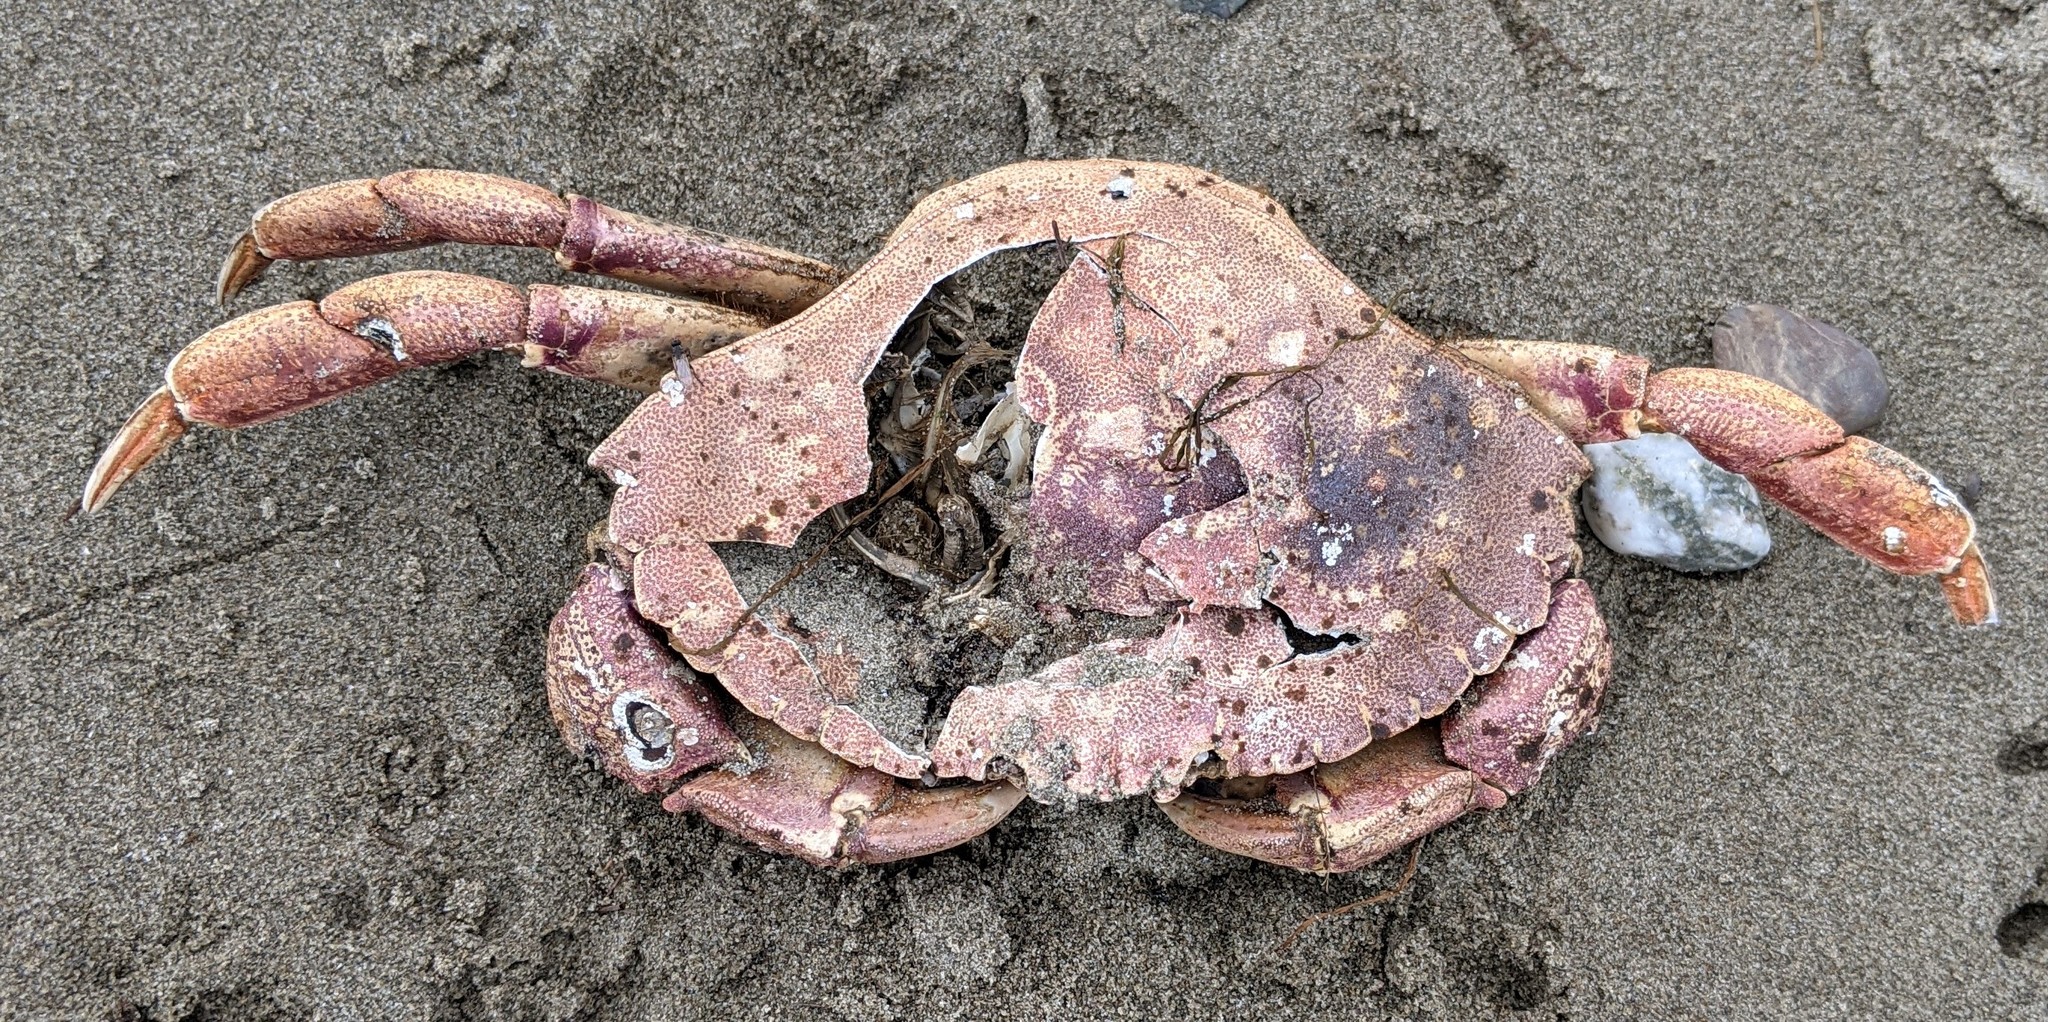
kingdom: Animalia
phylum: Arthropoda
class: Malacostraca
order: Decapoda
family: Cancridae
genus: Cancer
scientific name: Cancer irroratus
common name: Atlantic rock crab
